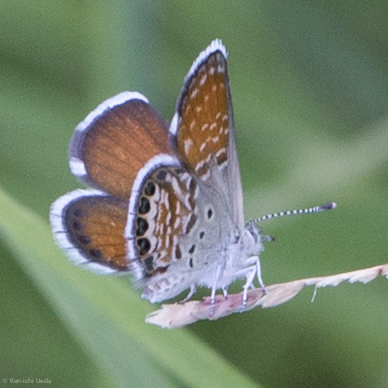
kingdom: Animalia
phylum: Arthropoda
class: Insecta
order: Lepidoptera
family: Lycaenidae
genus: Brephidium
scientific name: Brephidium exilis
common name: Pygmy blue
